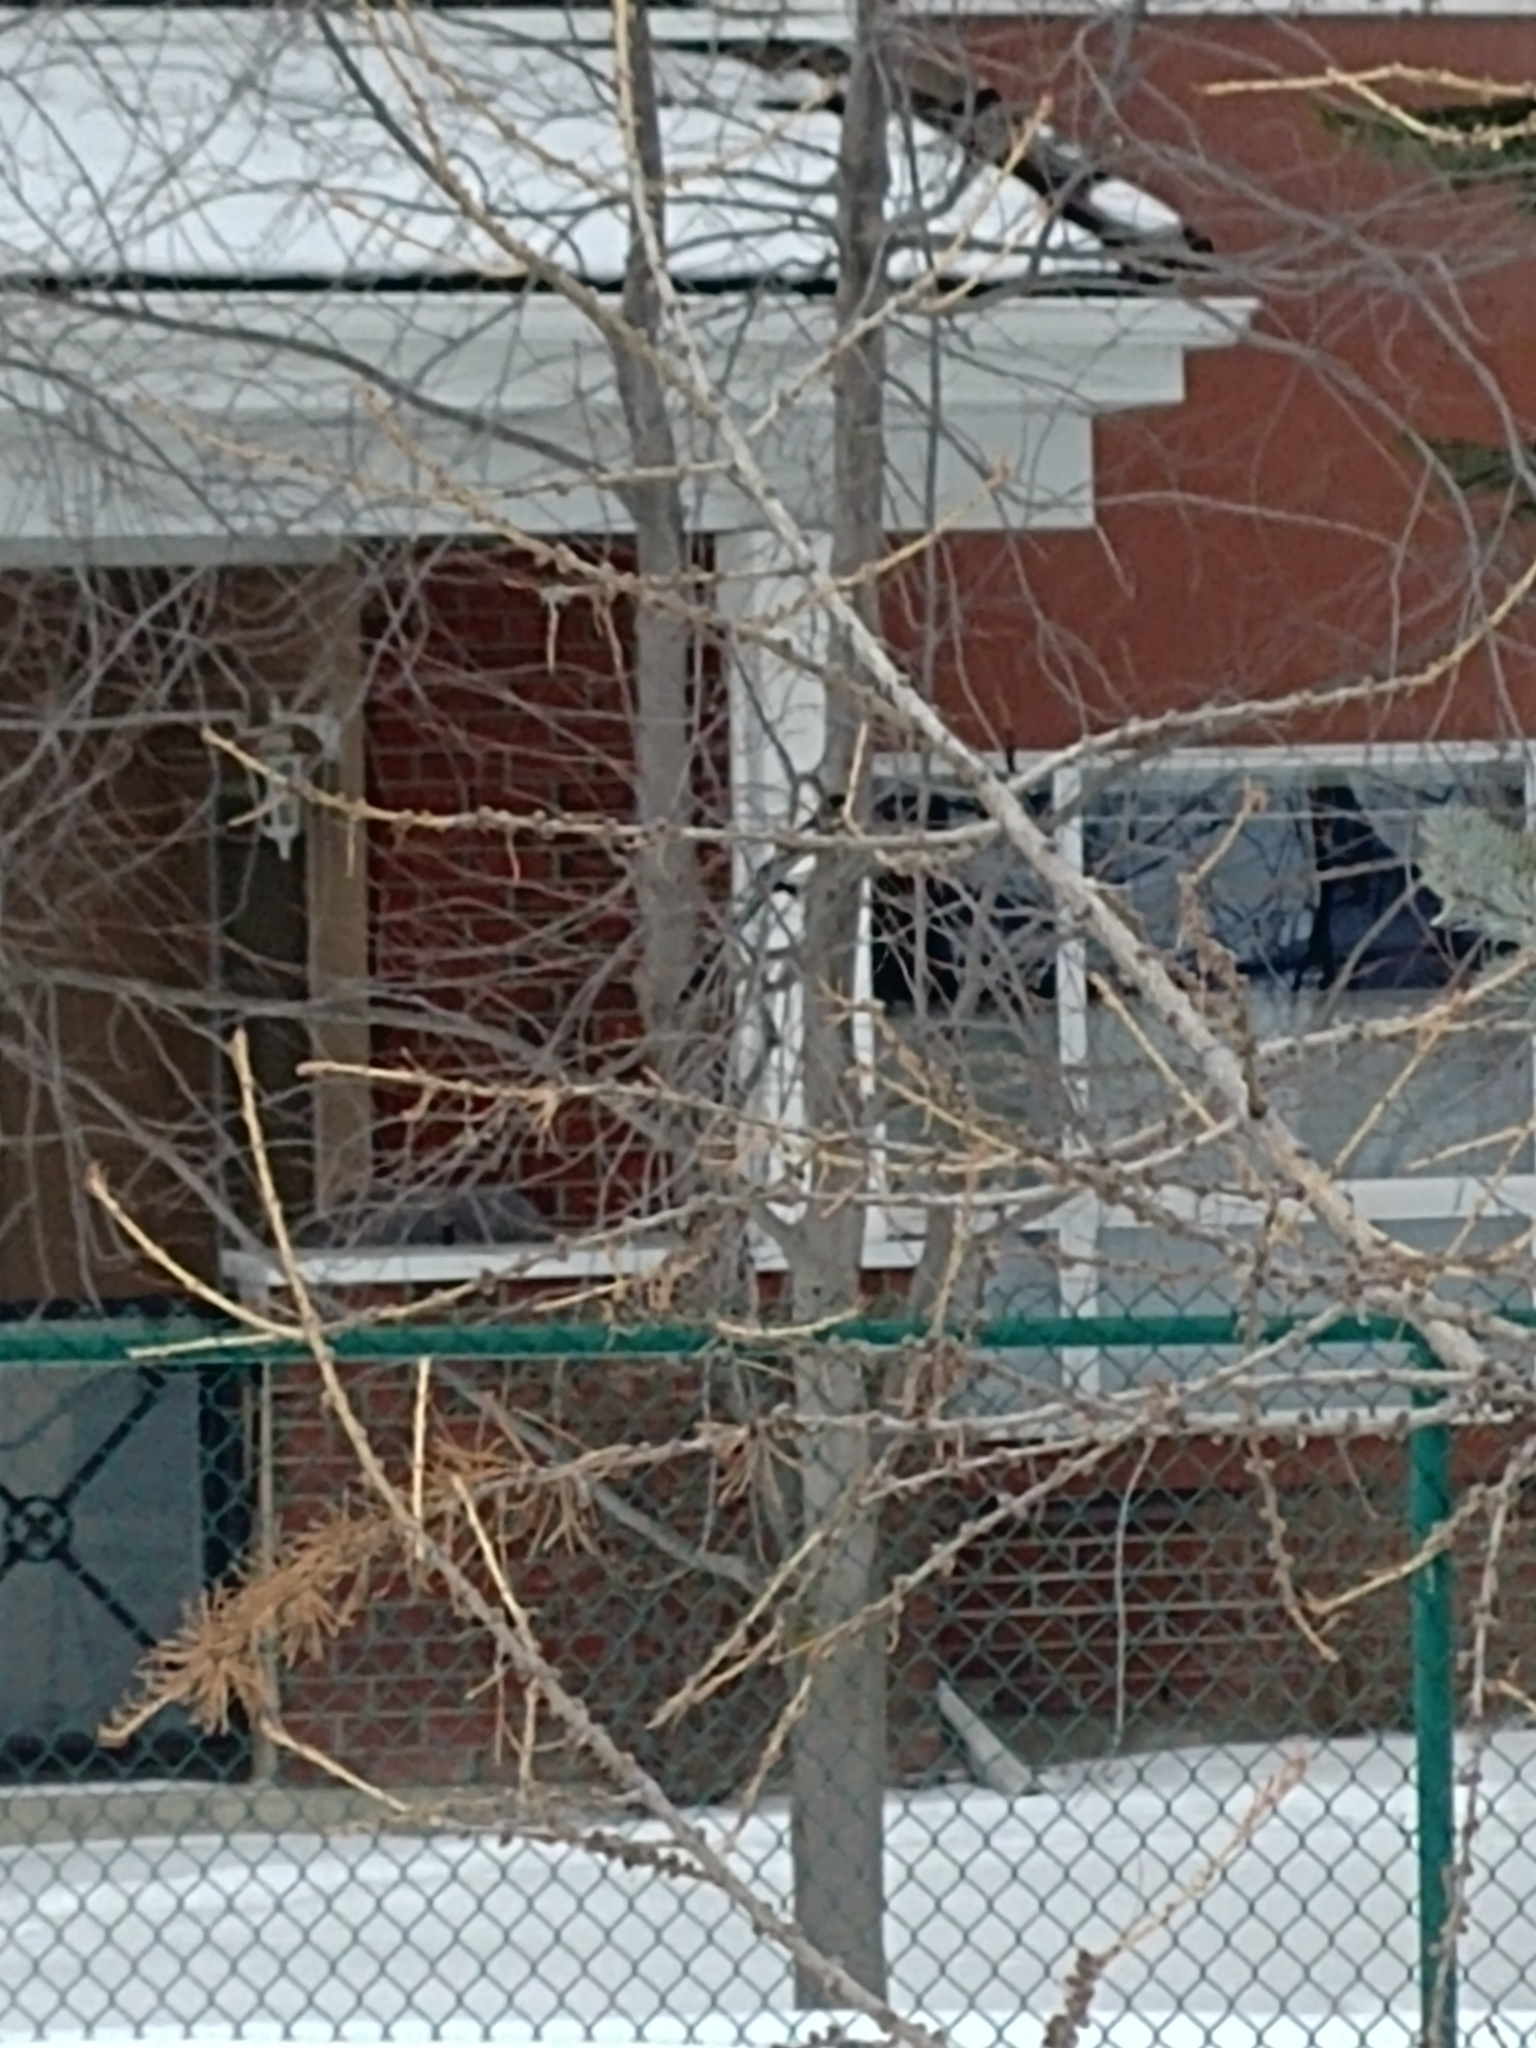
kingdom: Animalia
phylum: Chordata
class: Aves
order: Passeriformes
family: Corvidae
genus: Pica
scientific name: Pica hudsonia
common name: Black-billed magpie
